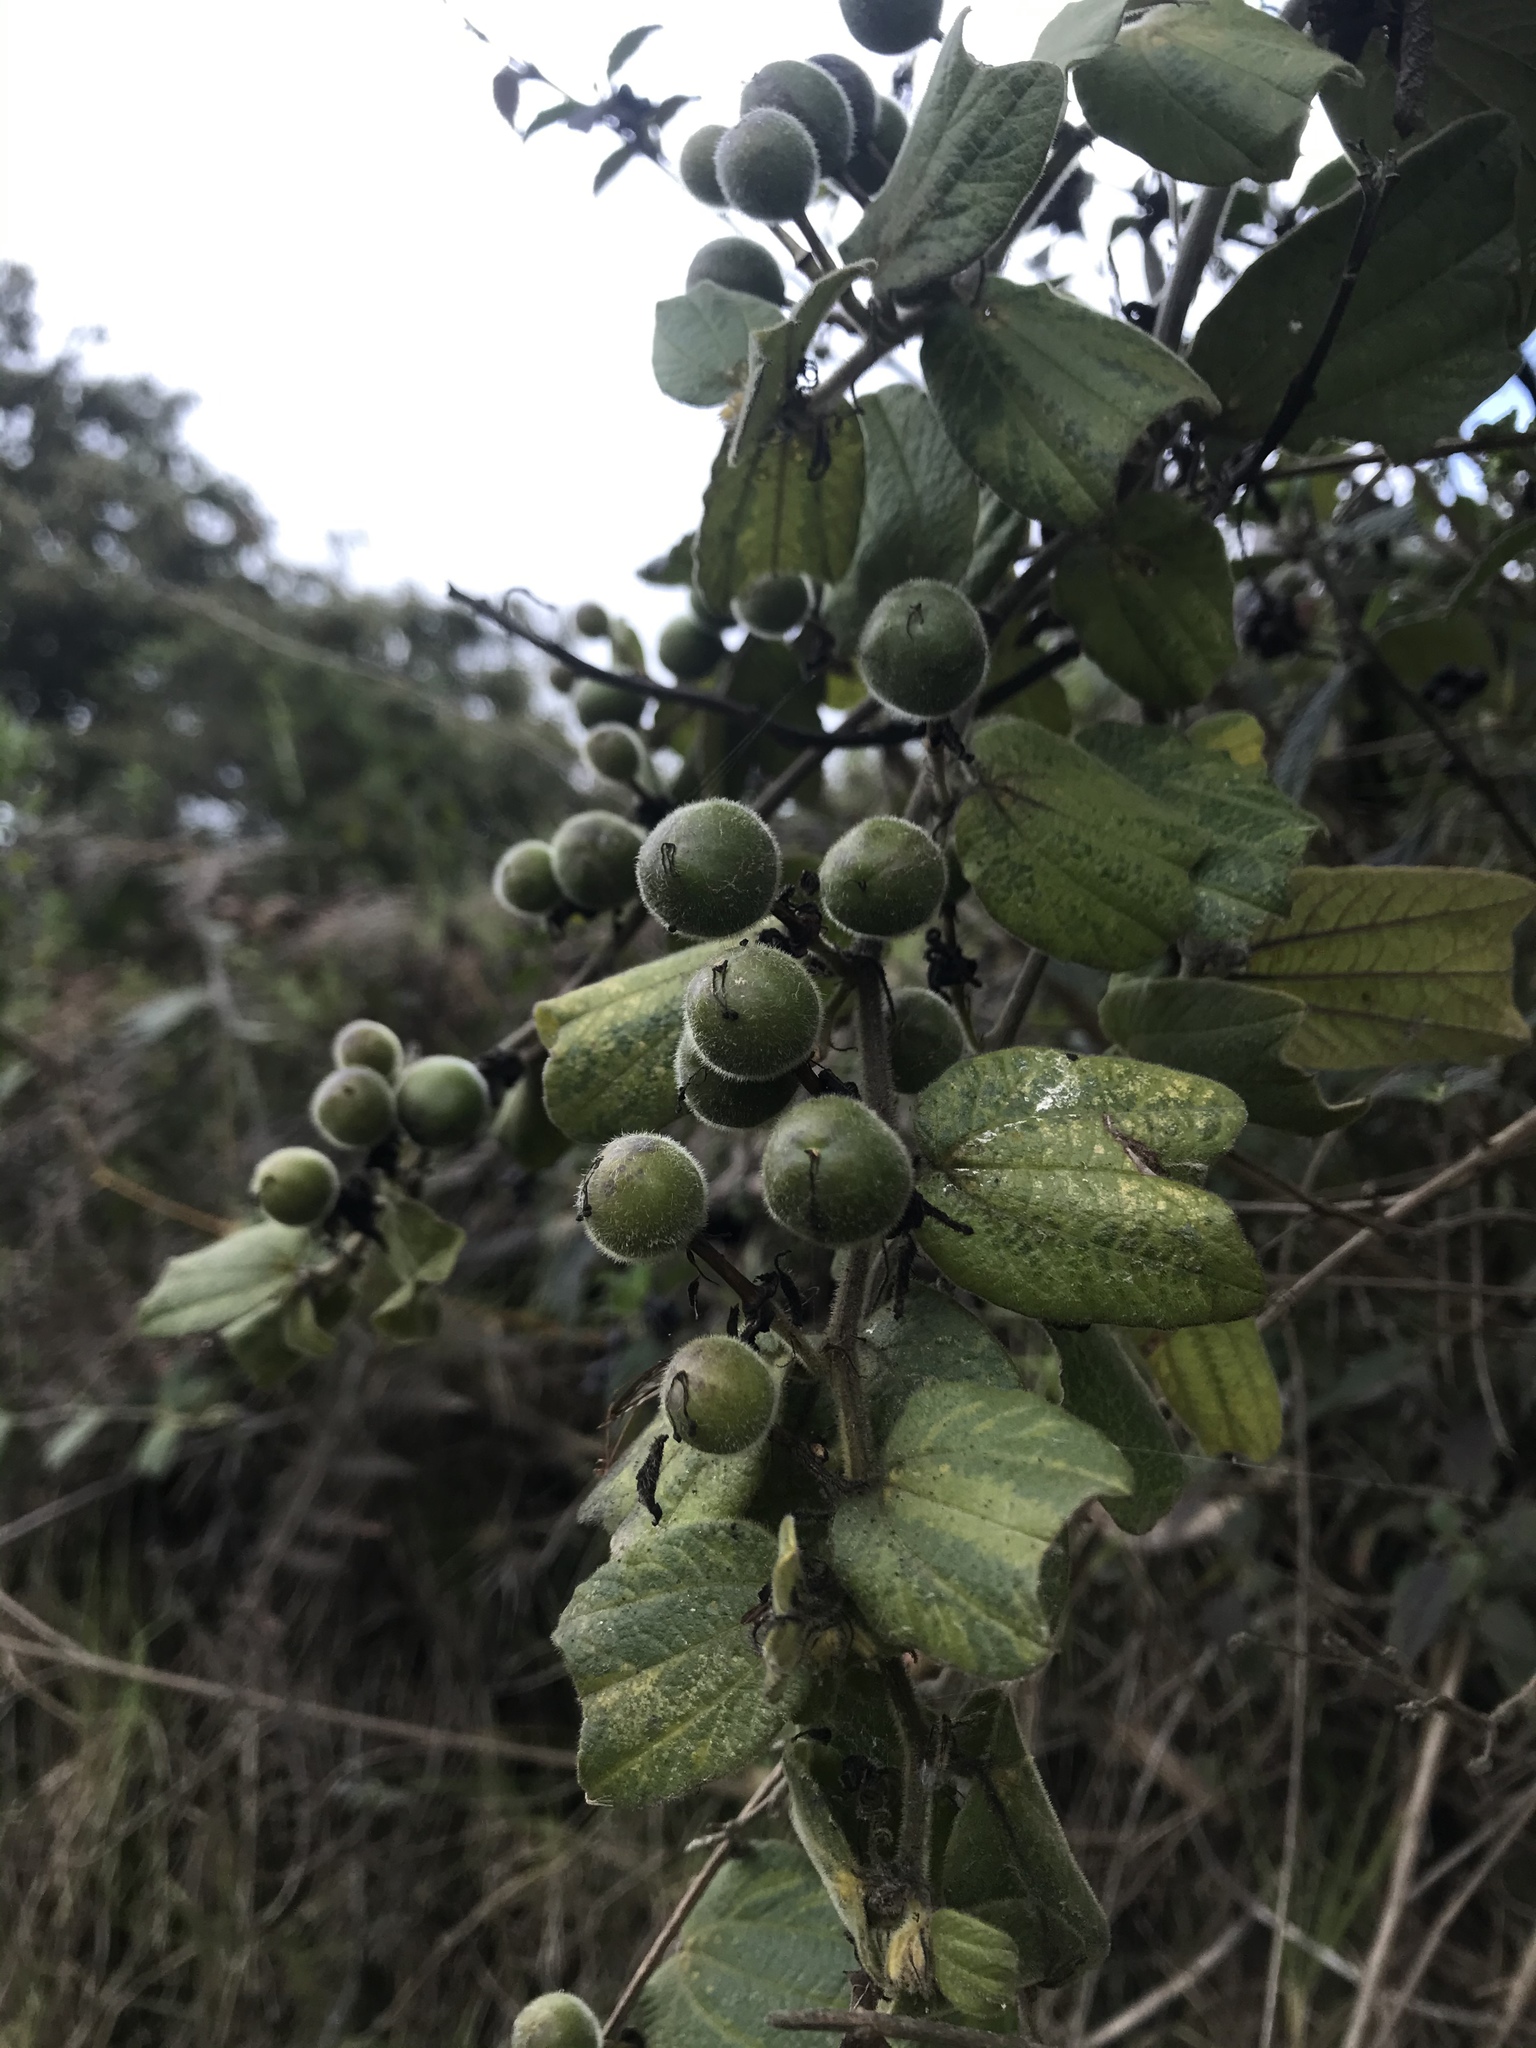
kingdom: Plantae
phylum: Tracheophyta
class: Magnoliopsida
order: Malpighiales
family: Passifloraceae
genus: Passiflora
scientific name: Passiflora bogotensis
